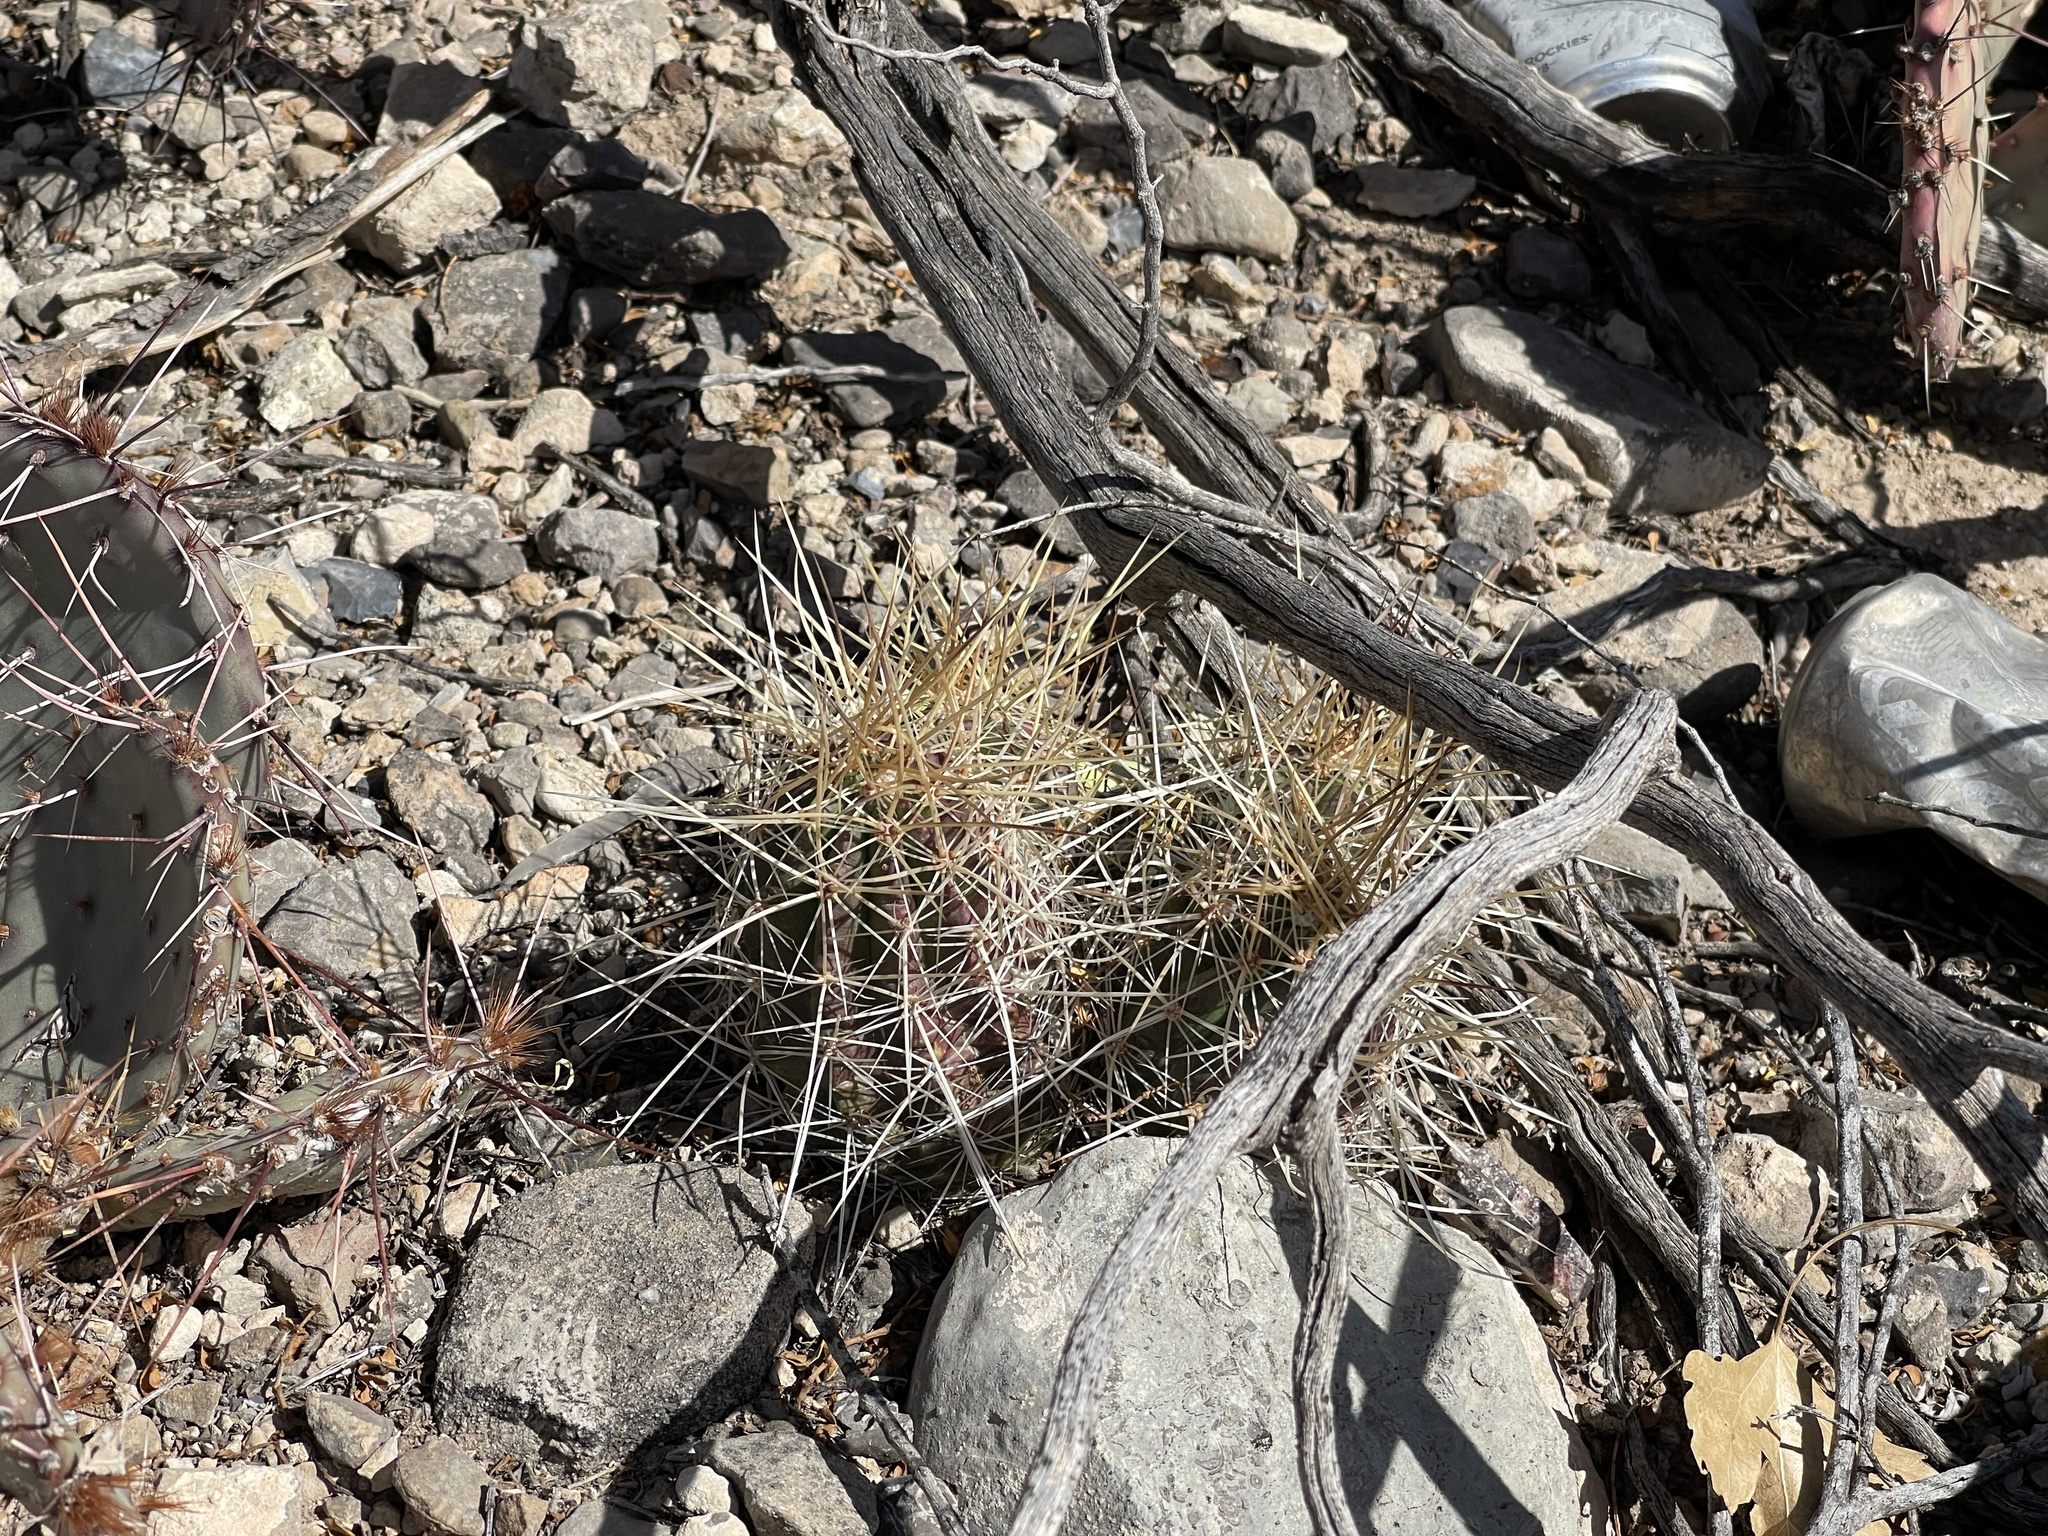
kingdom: Plantae
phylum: Tracheophyta
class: Magnoliopsida
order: Caryophyllales
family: Cactaceae
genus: Echinocereus
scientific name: Echinocereus stramineus
